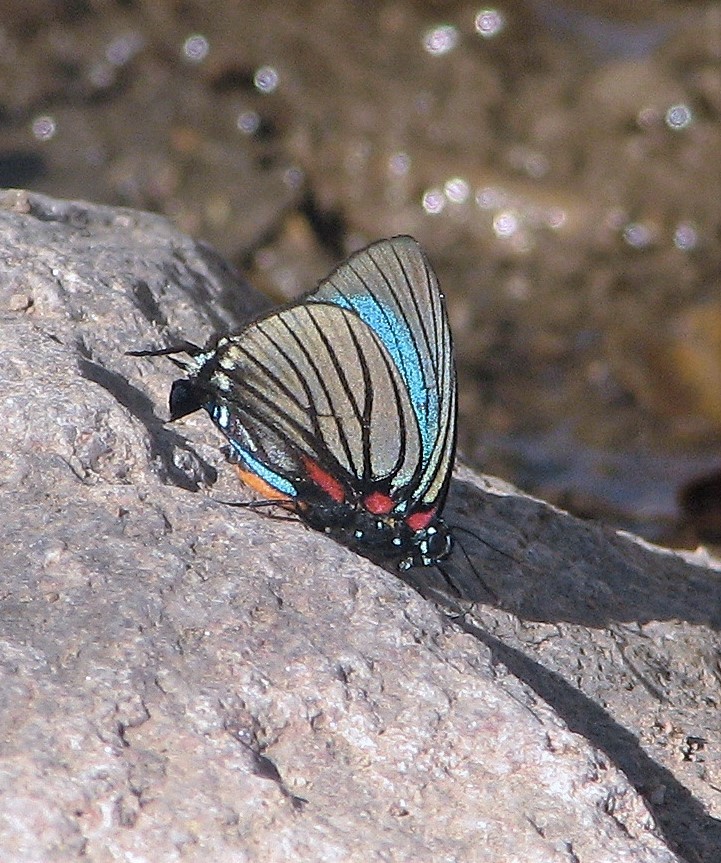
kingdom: Animalia
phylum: Arthropoda
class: Insecta
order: Lepidoptera
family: Lycaenidae
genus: Thecla
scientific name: Thecla polybe
